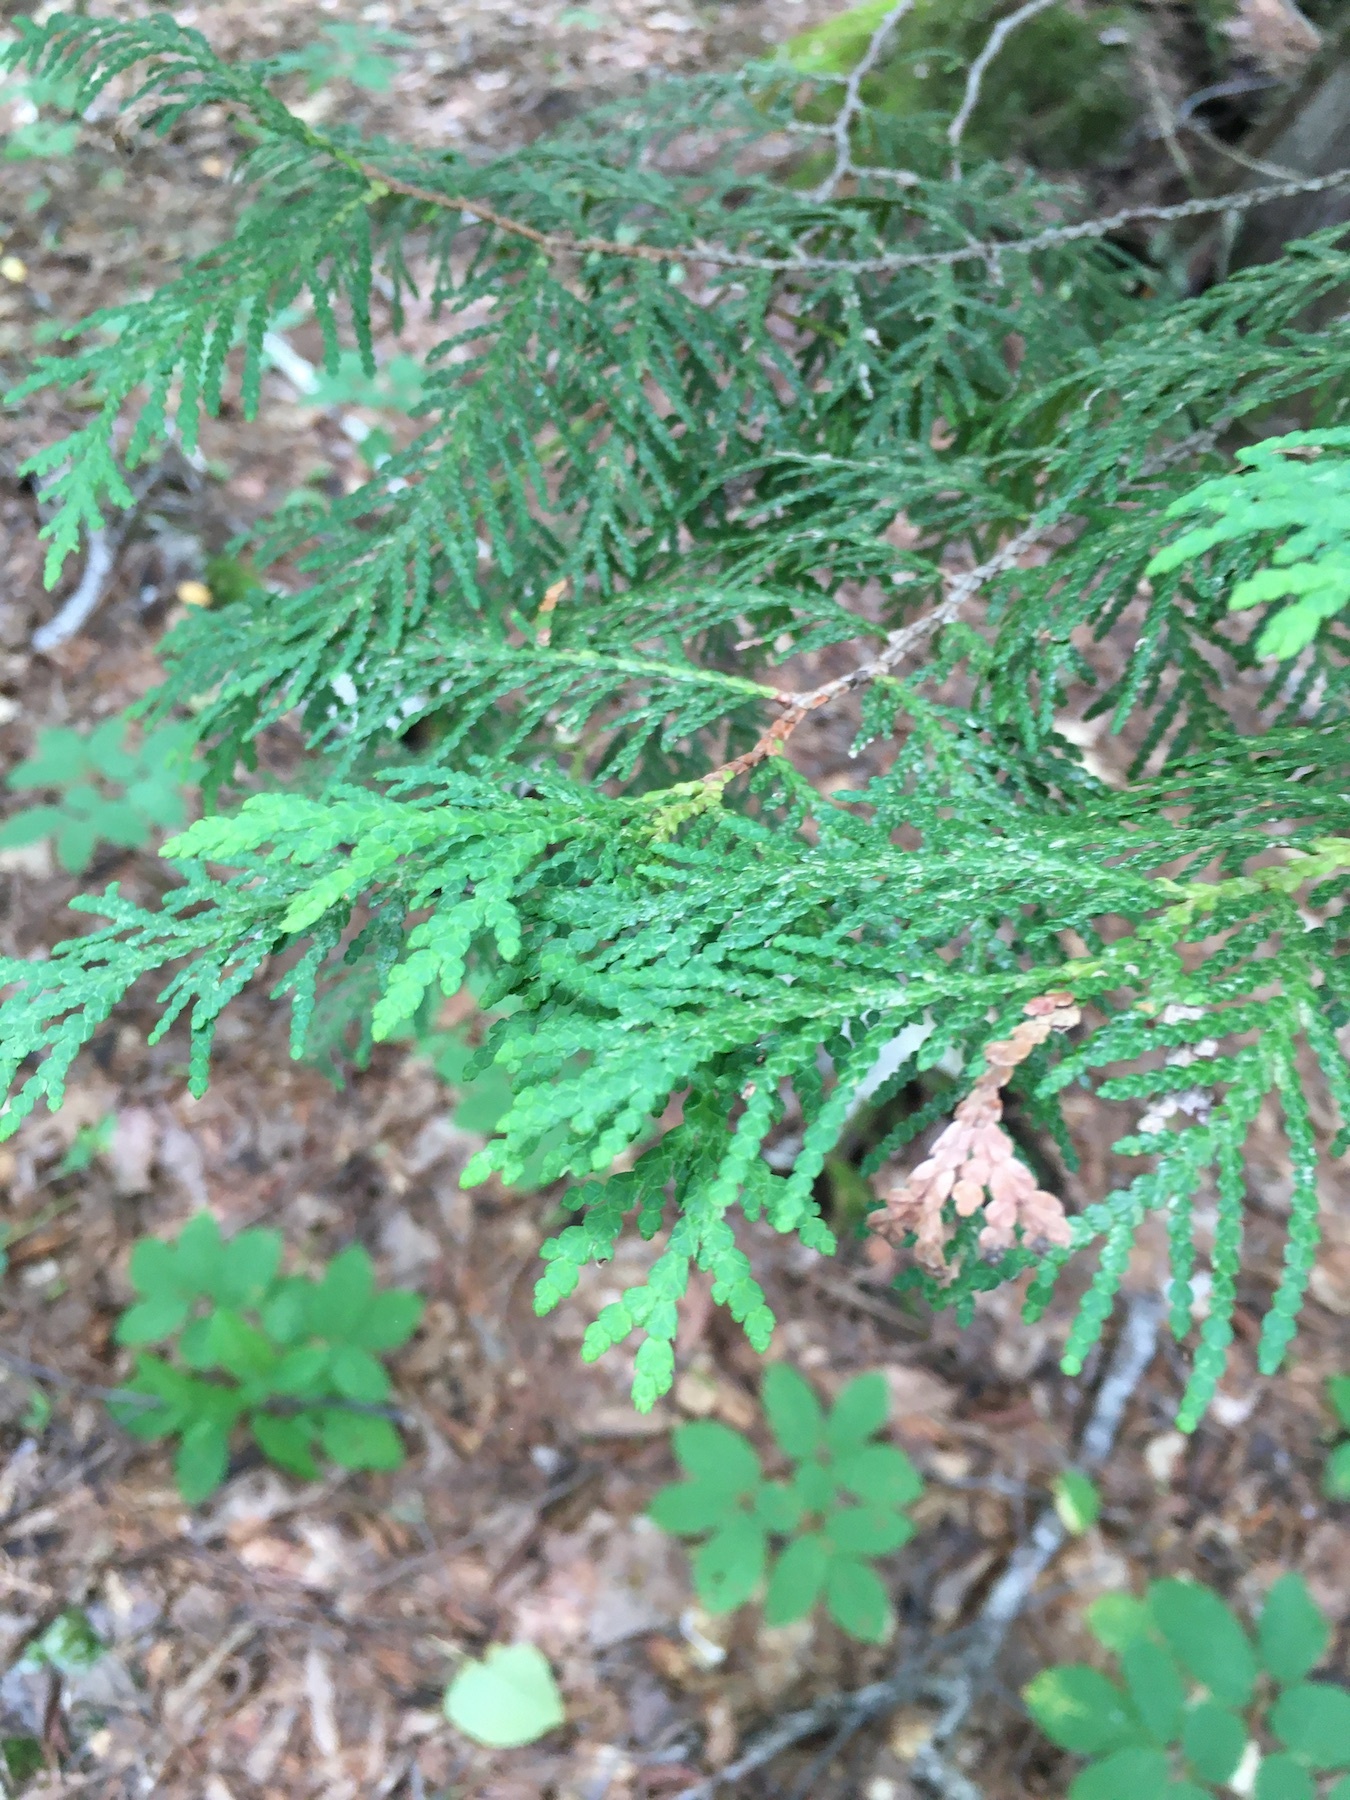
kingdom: Plantae
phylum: Tracheophyta
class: Pinopsida
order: Pinales
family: Cupressaceae
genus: Thuja
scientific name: Thuja occidentalis
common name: Northern white-cedar
